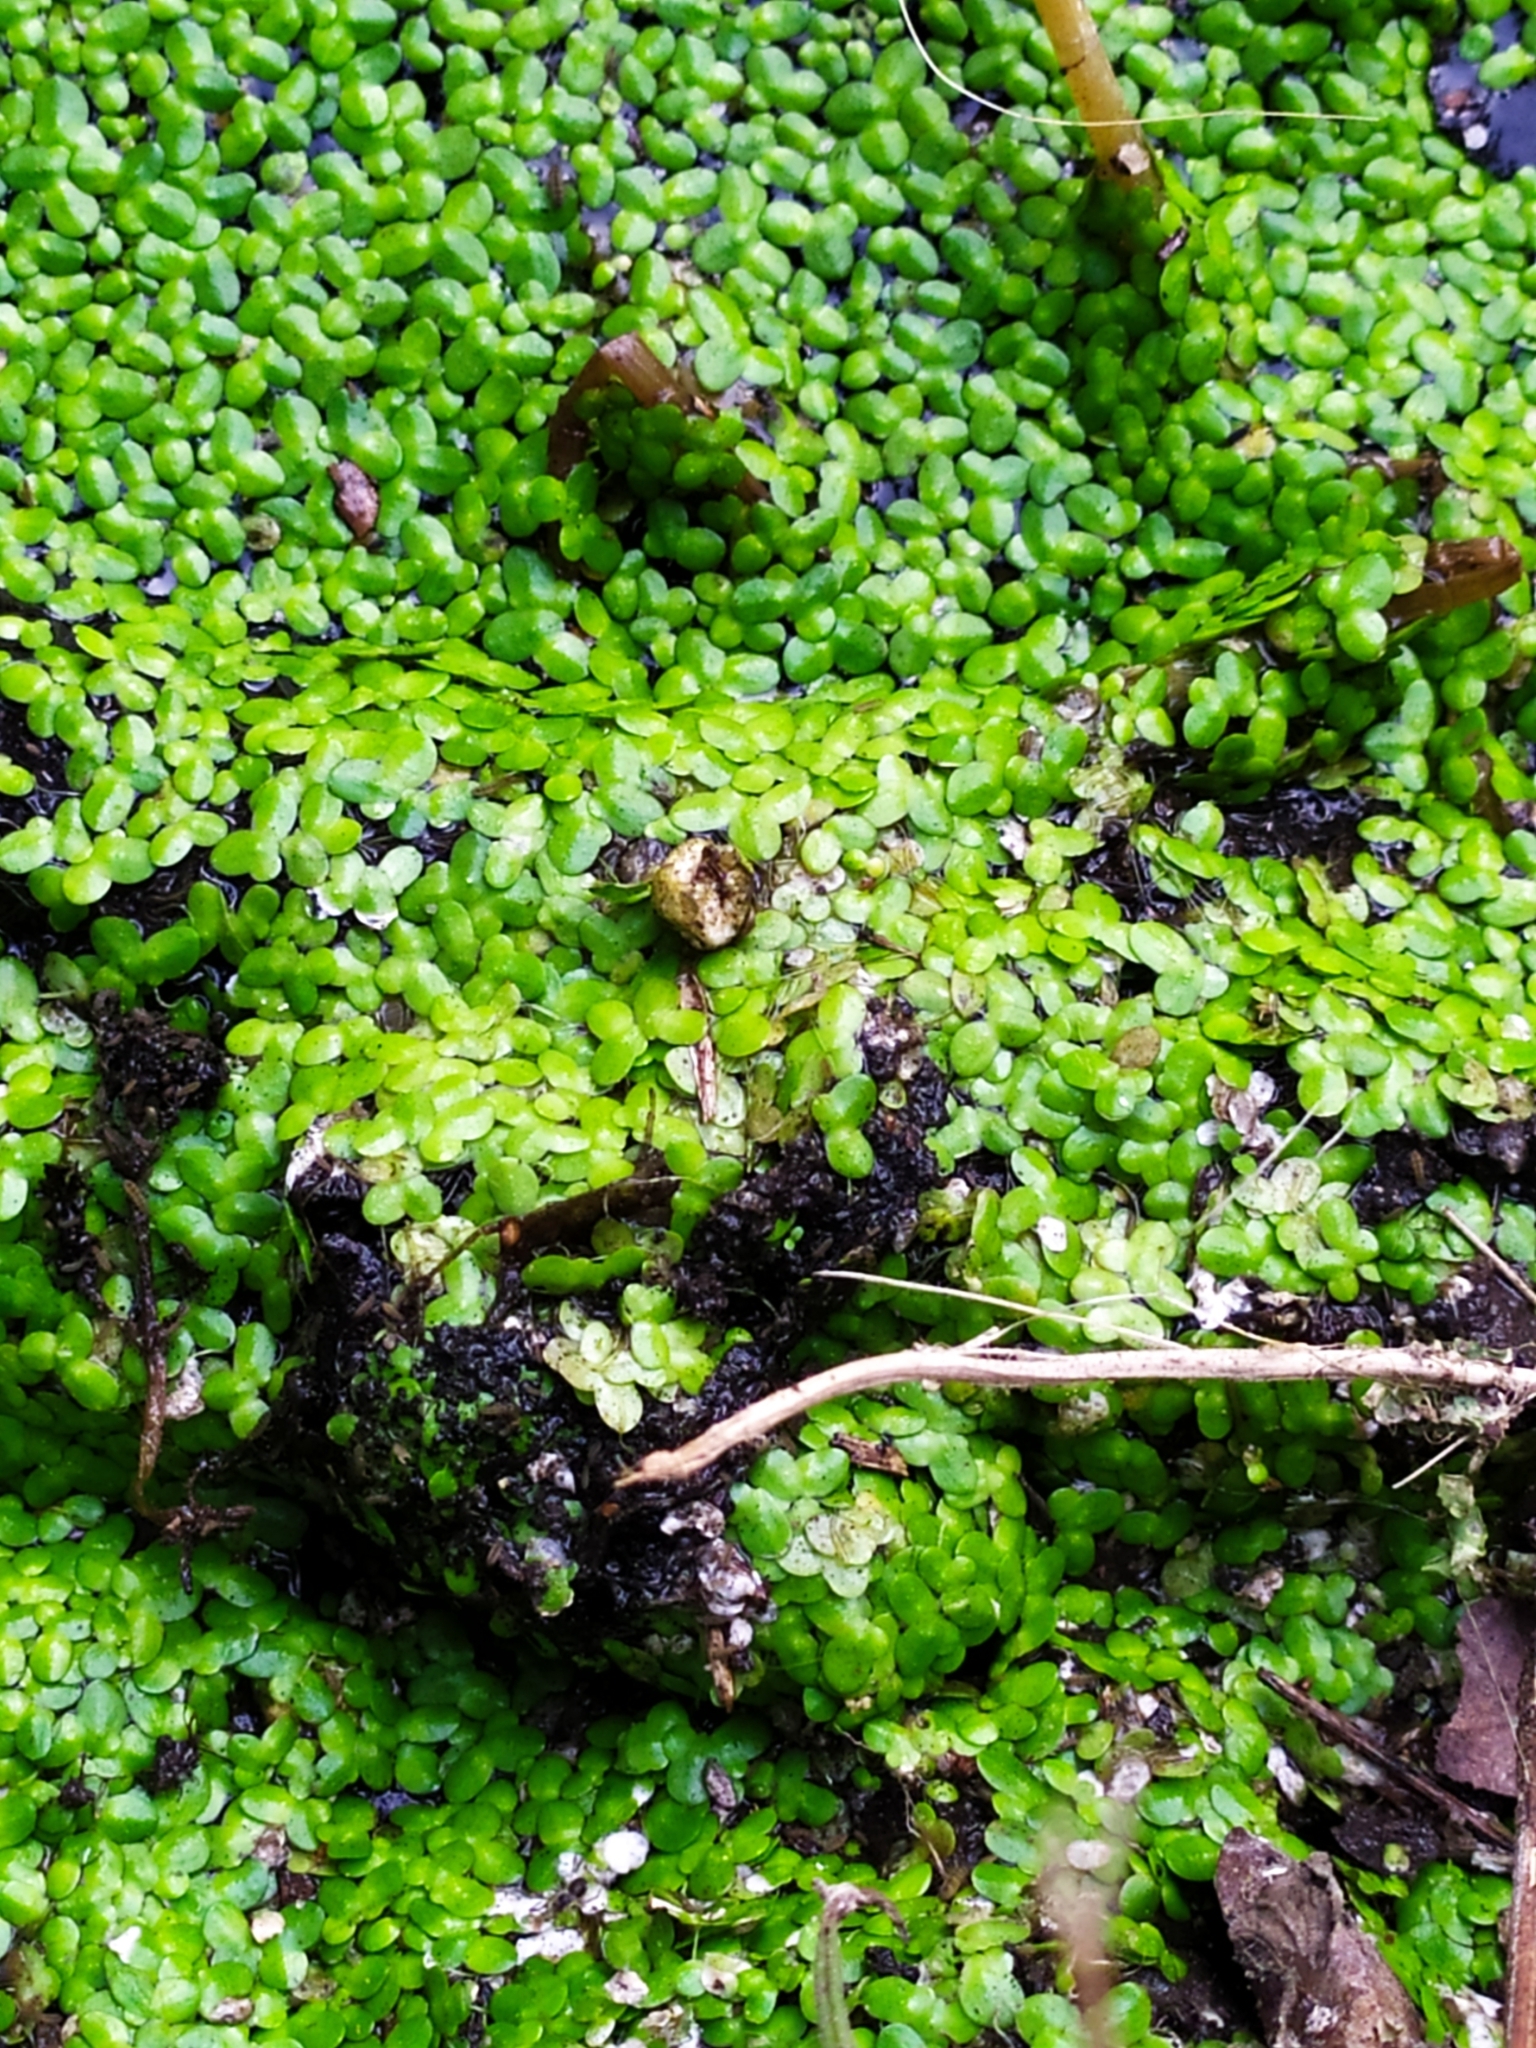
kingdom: Plantae
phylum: Tracheophyta
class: Liliopsida
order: Alismatales
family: Araceae
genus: Lemna
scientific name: Lemna minor
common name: Common duckweed
